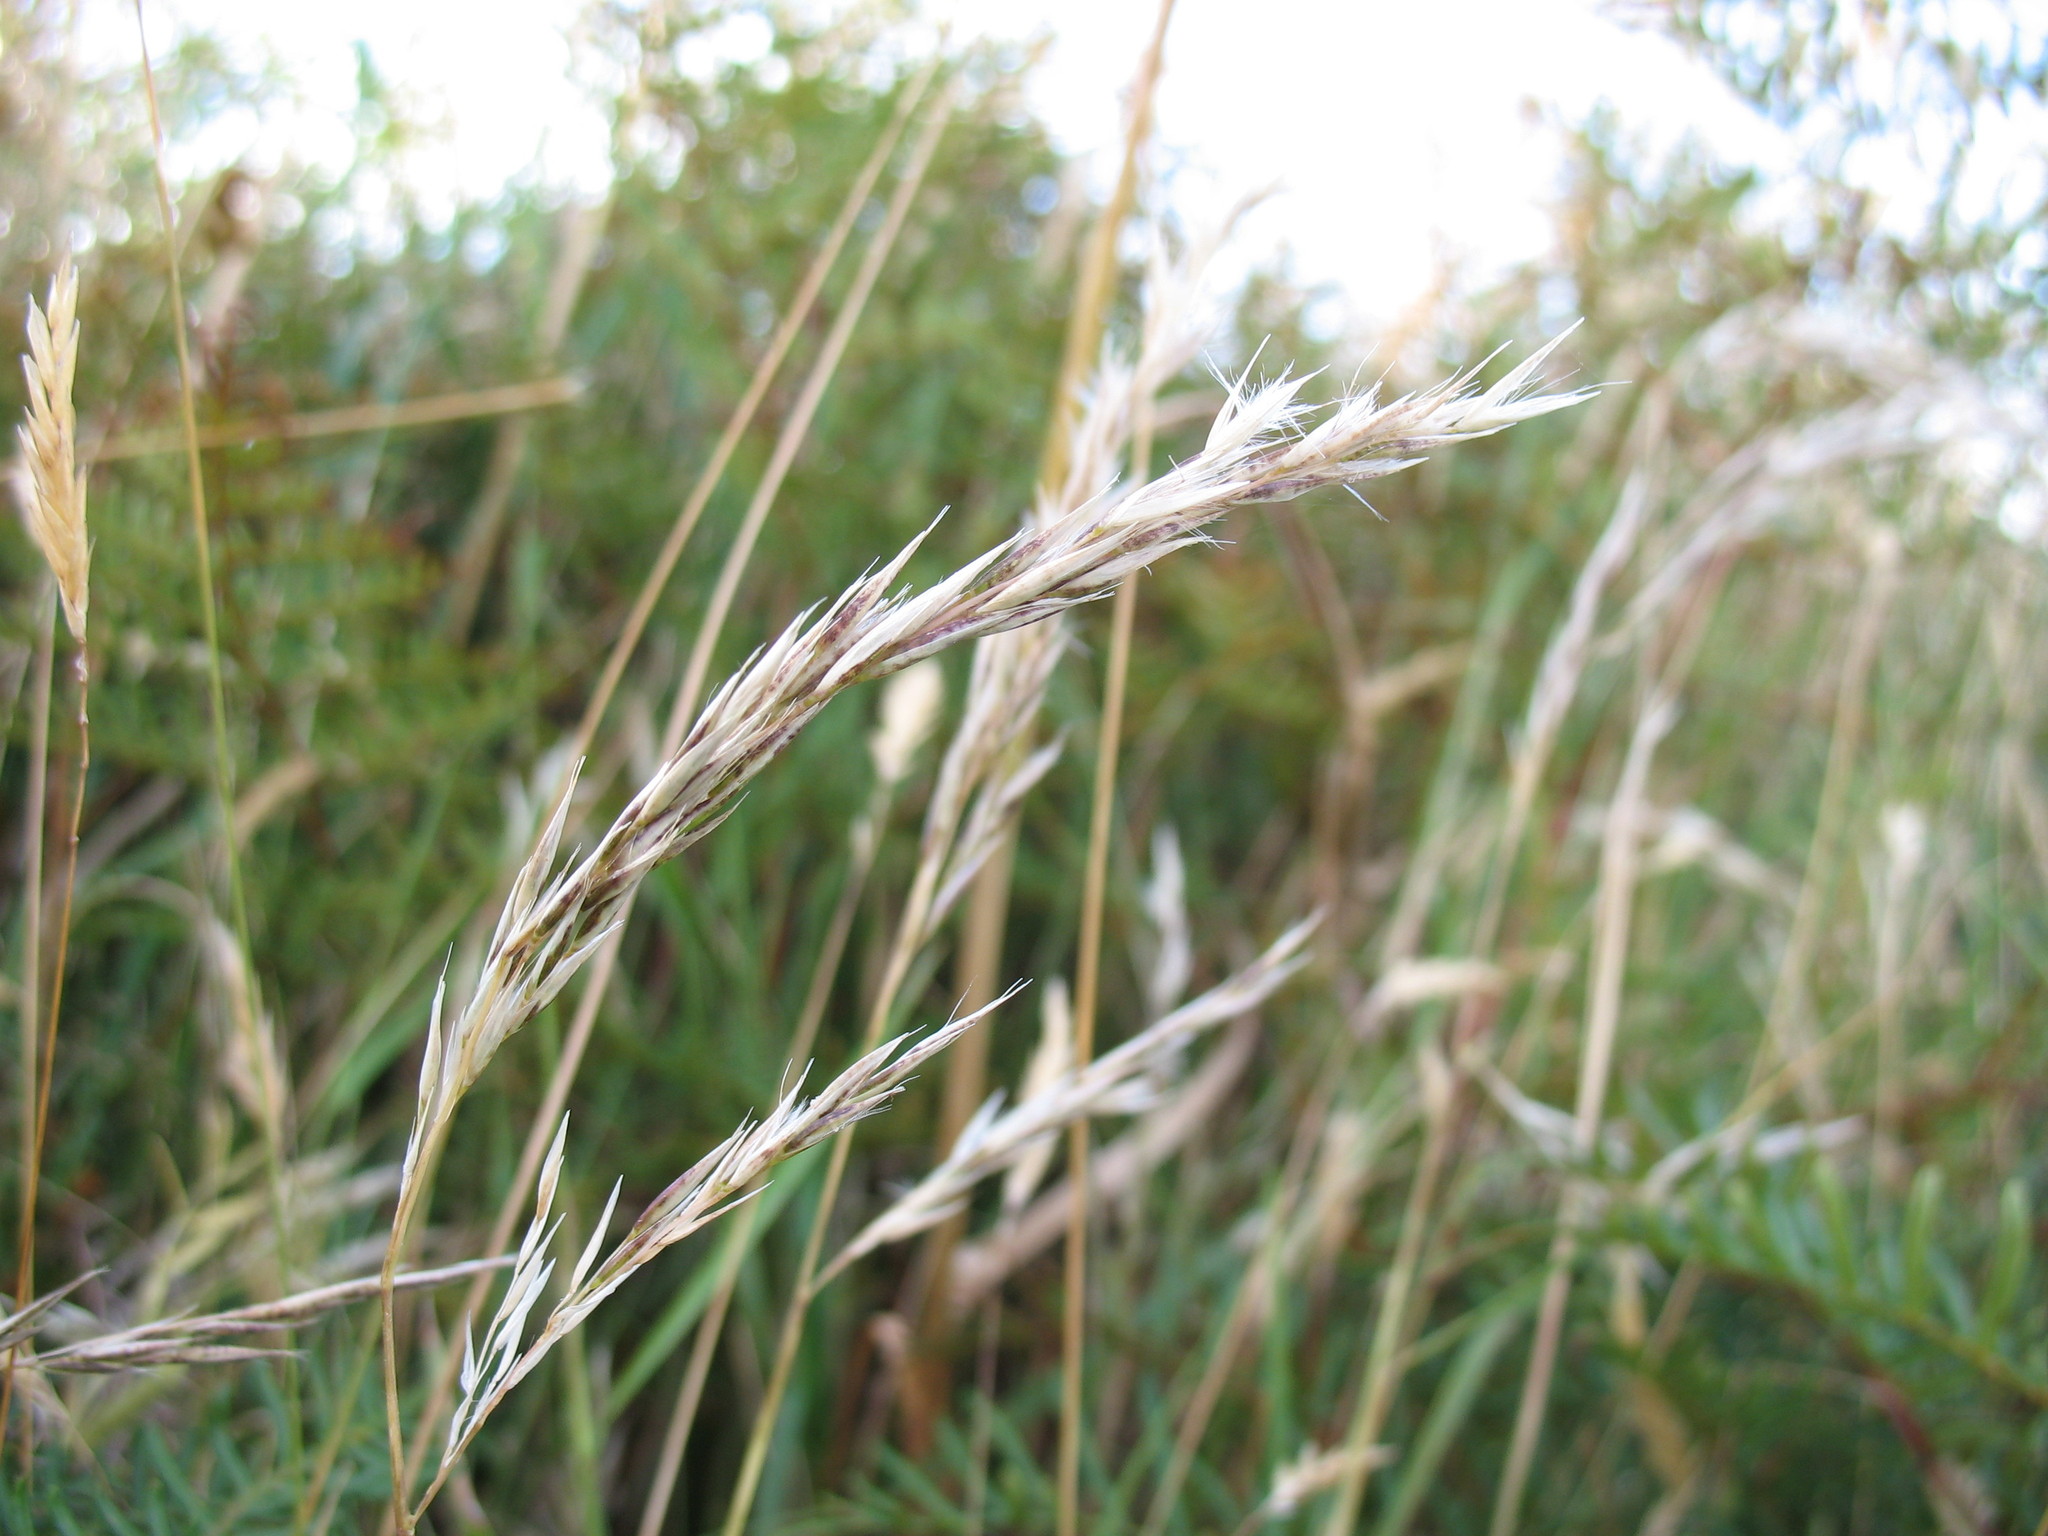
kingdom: Plantae
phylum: Tracheophyta
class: Liliopsida
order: Poales
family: Poaceae
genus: Rytidosperma
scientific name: Rytidosperma gracile
